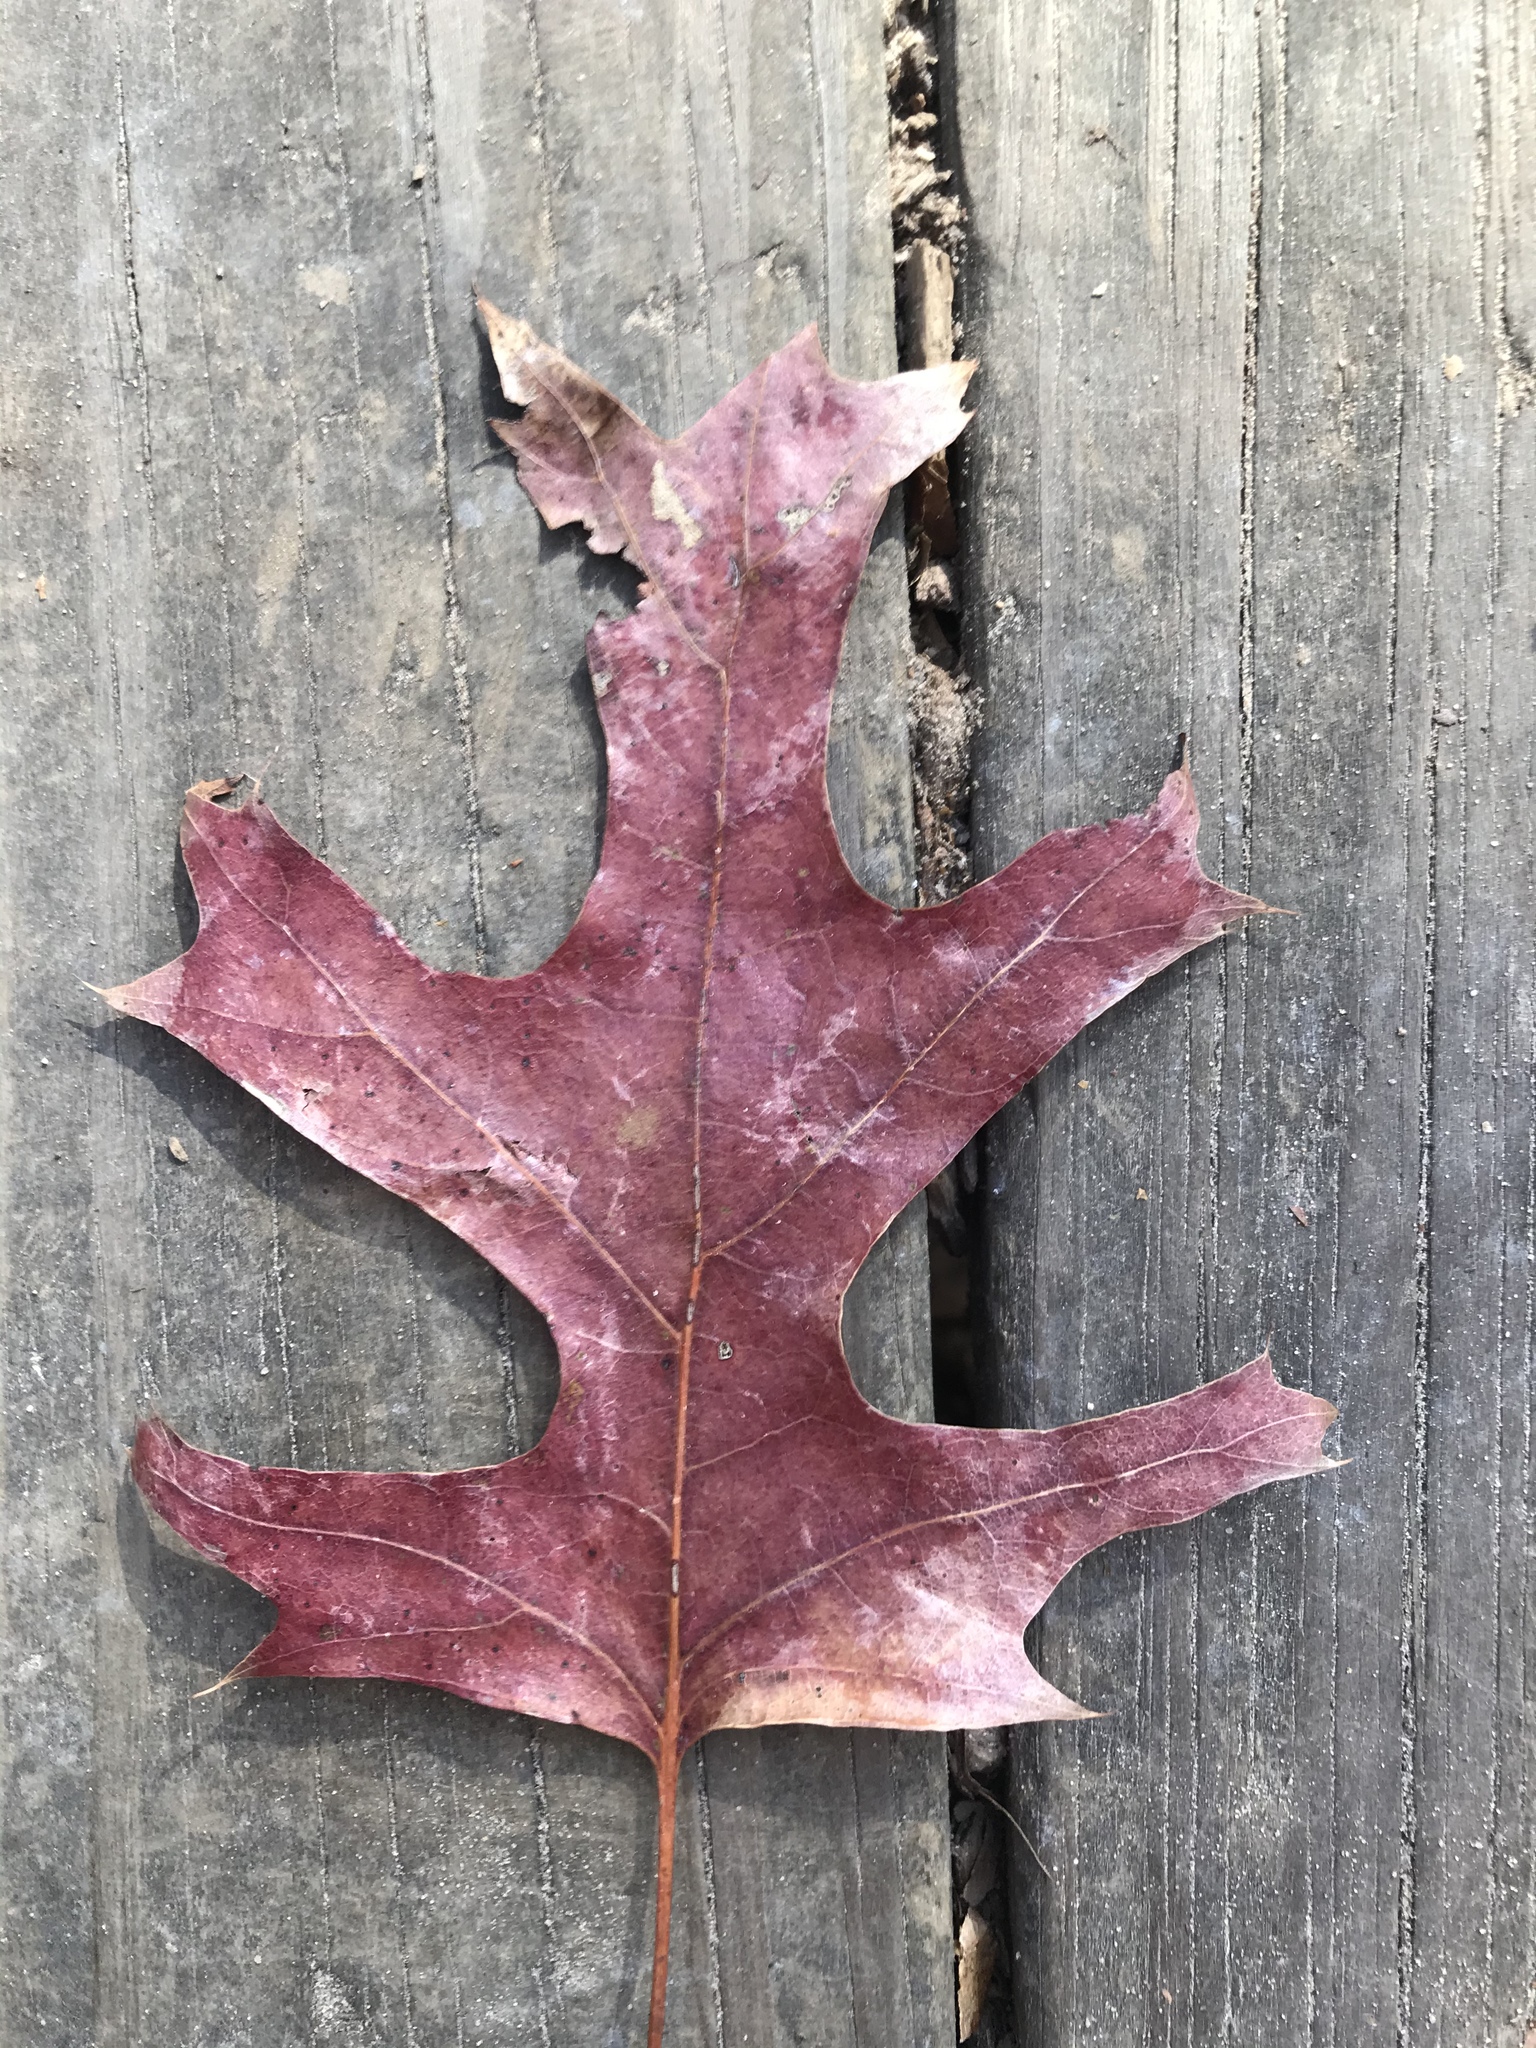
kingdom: Plantae
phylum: Tracheophyta
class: Magnoliopsida
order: Fagales
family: Fagaceae
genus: Quercus
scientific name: Quercus coccinea
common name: Scarlet oak
